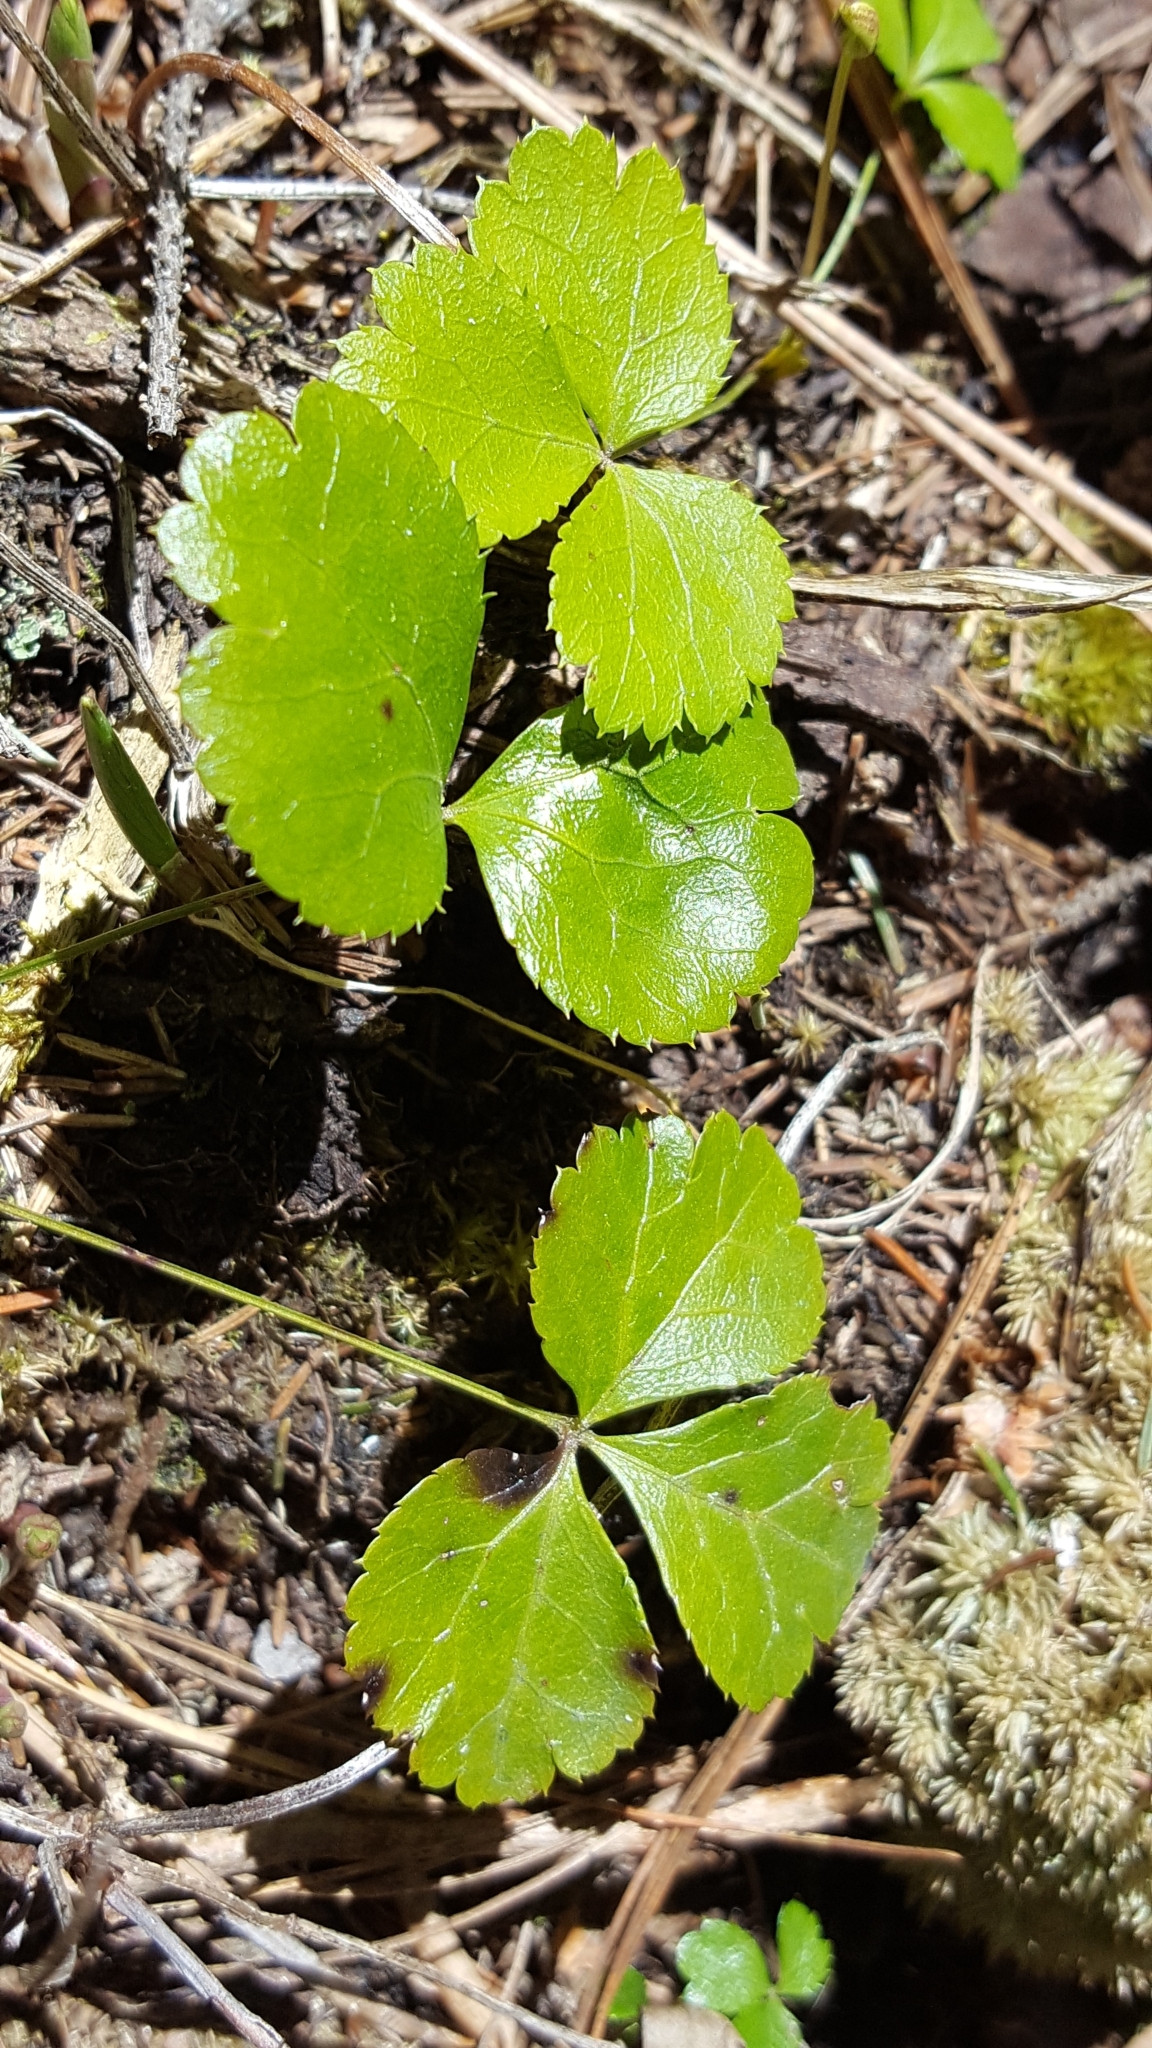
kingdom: Plantae
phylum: Tracheophyta
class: Magnoliopsida
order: Ranunculales
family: Ranunculaceae
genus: Coptis
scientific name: Coptis trifolia
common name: Canker-root
